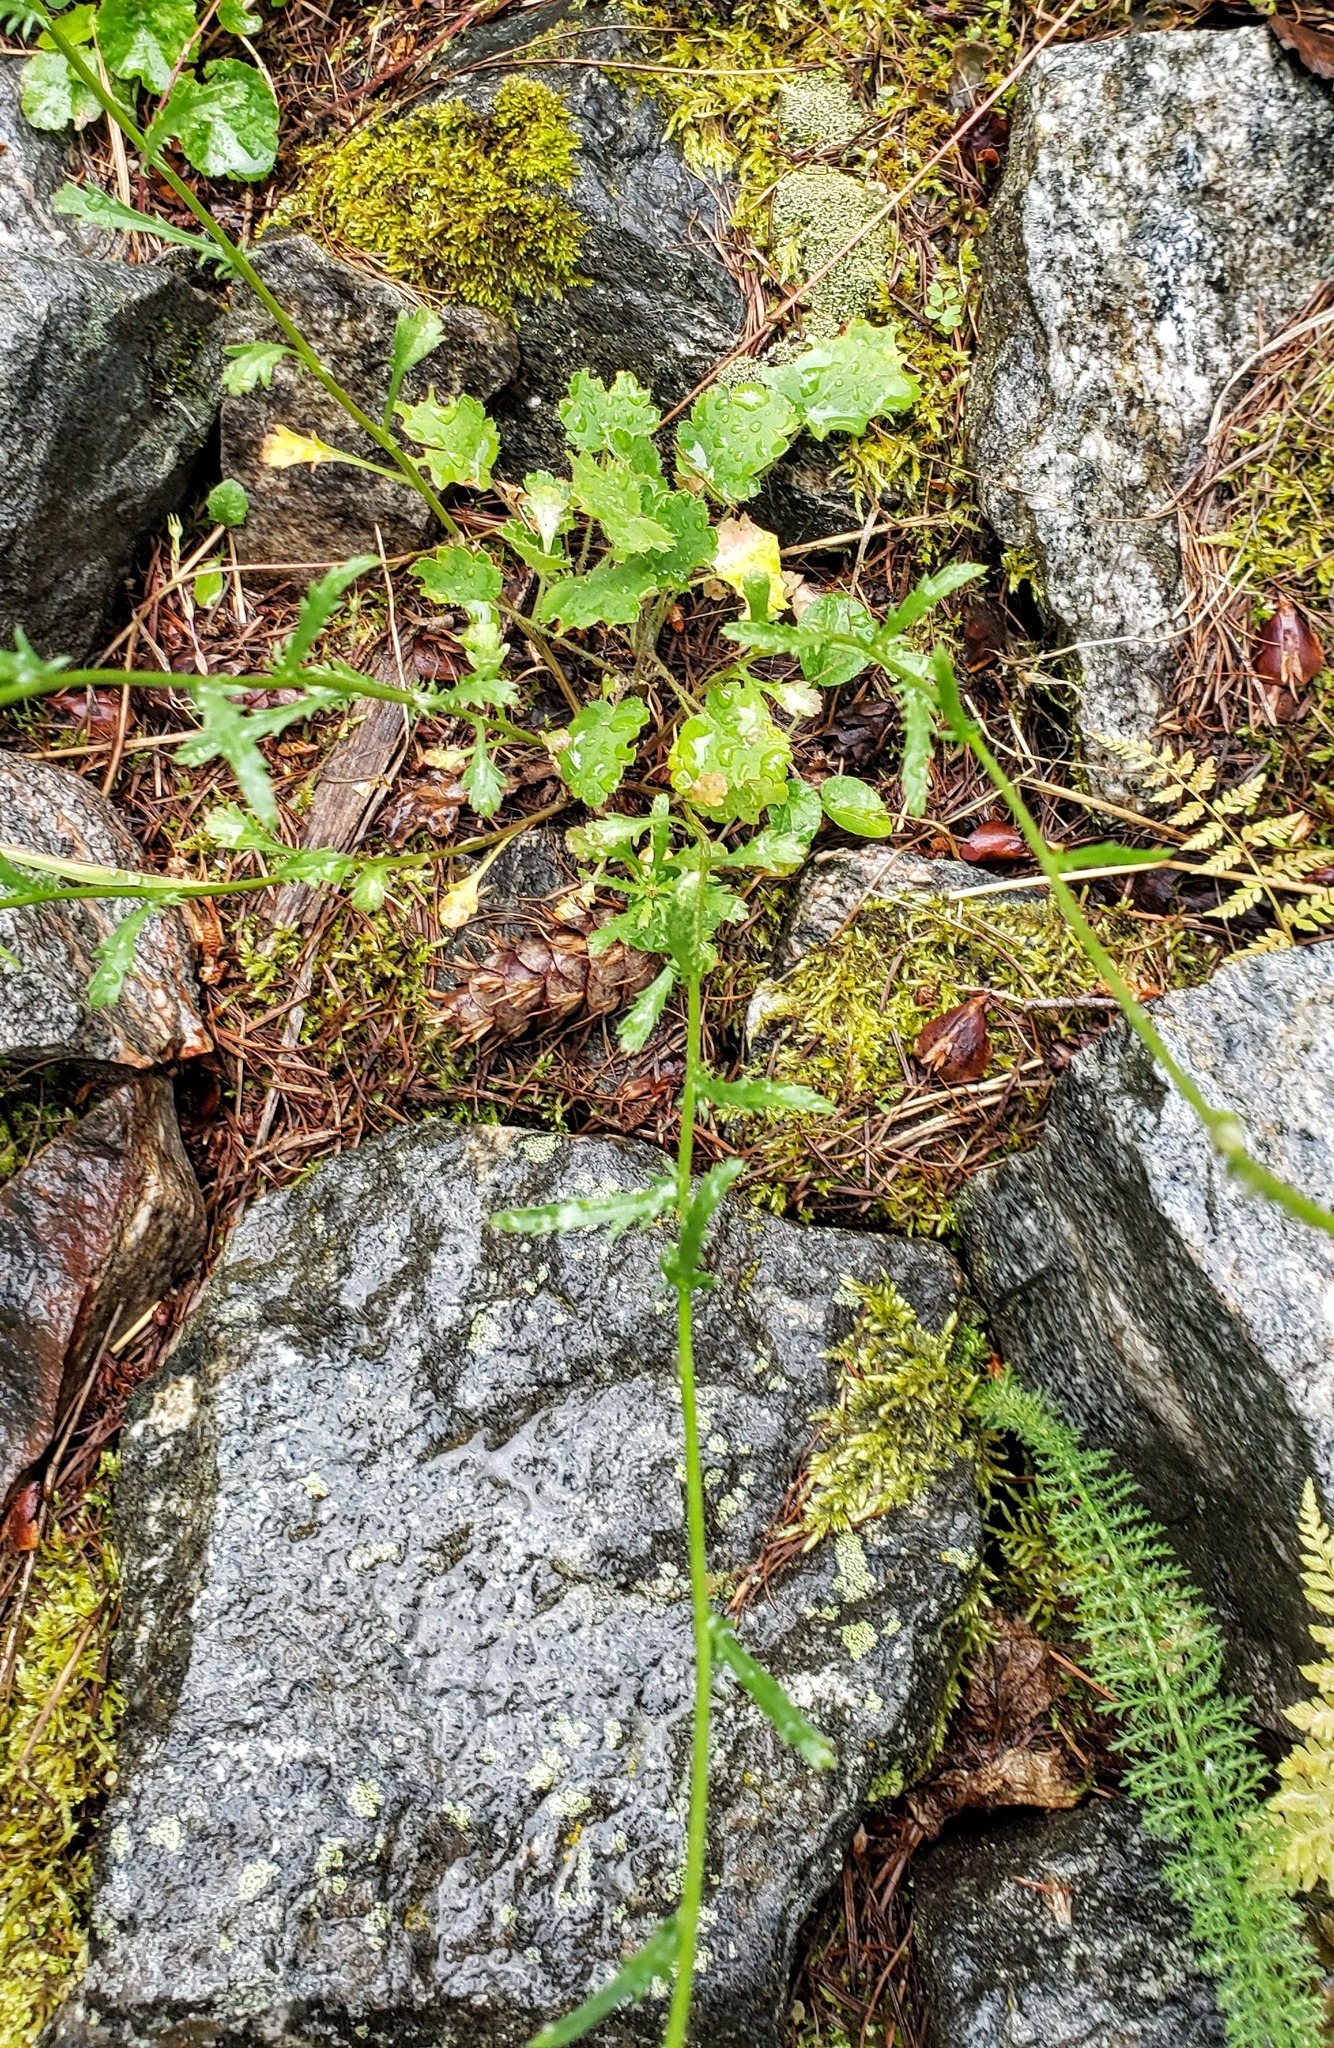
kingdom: Plantae
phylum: Tracheophyta
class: Magnoliopsida
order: Asterales
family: Asteraceae
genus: Leucanthemum
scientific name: Leucanthemum vulgare
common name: Oxeye daisy
